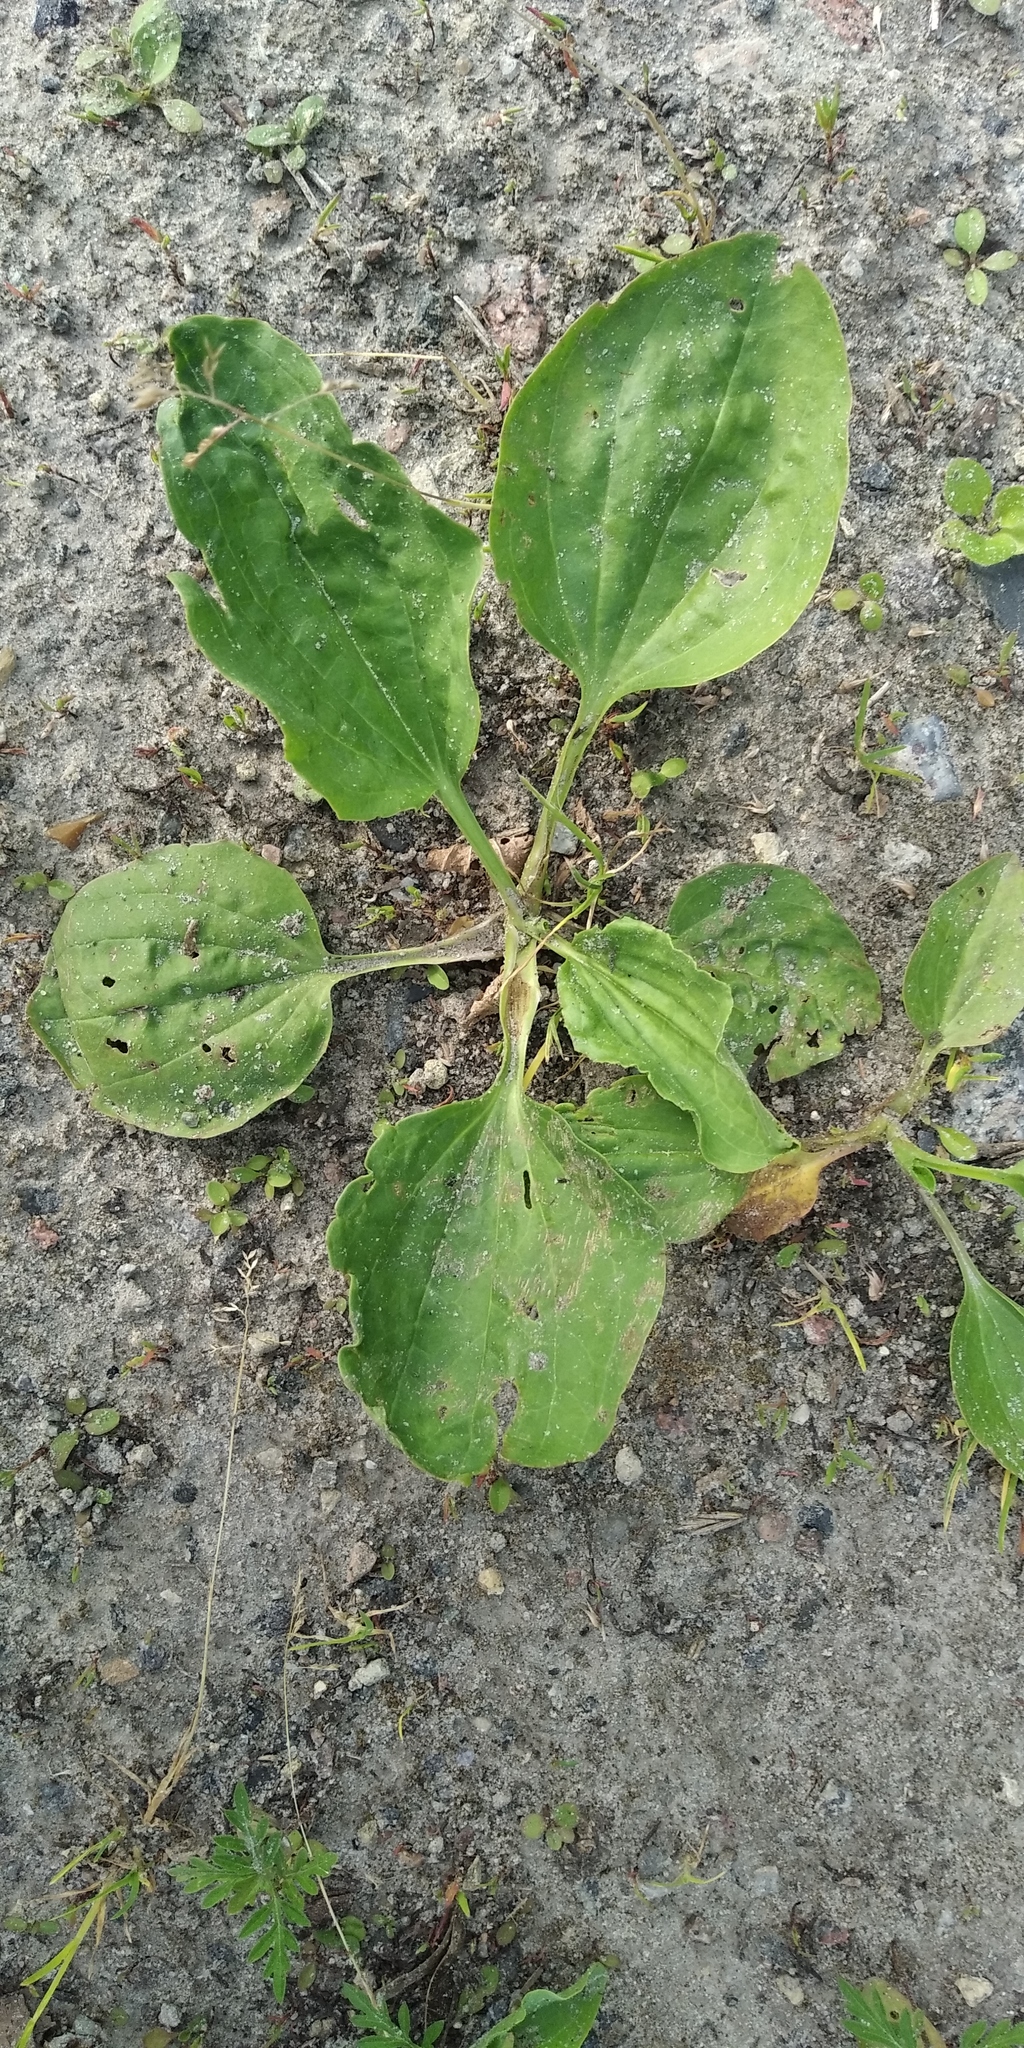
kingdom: Plantae
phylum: Tracheophyta
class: Magnoliopsida
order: Lamiales
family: Plantaginaceae
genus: Plantago
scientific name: Plantago major
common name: Common plantain
